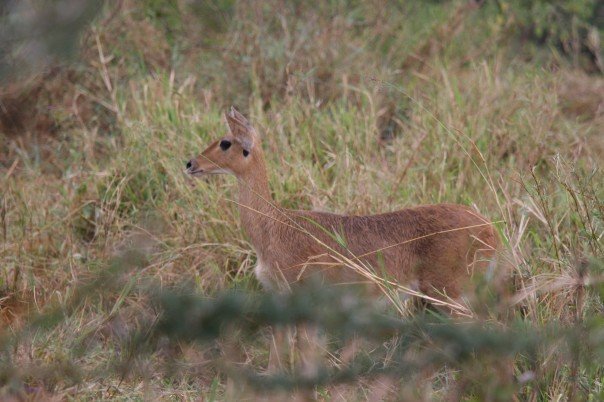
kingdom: Animalia
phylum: Chordata
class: Mammalia
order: Artiodactyla
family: Bovidae
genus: Redunca
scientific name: Redunca redunca
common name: Common reedbuck
